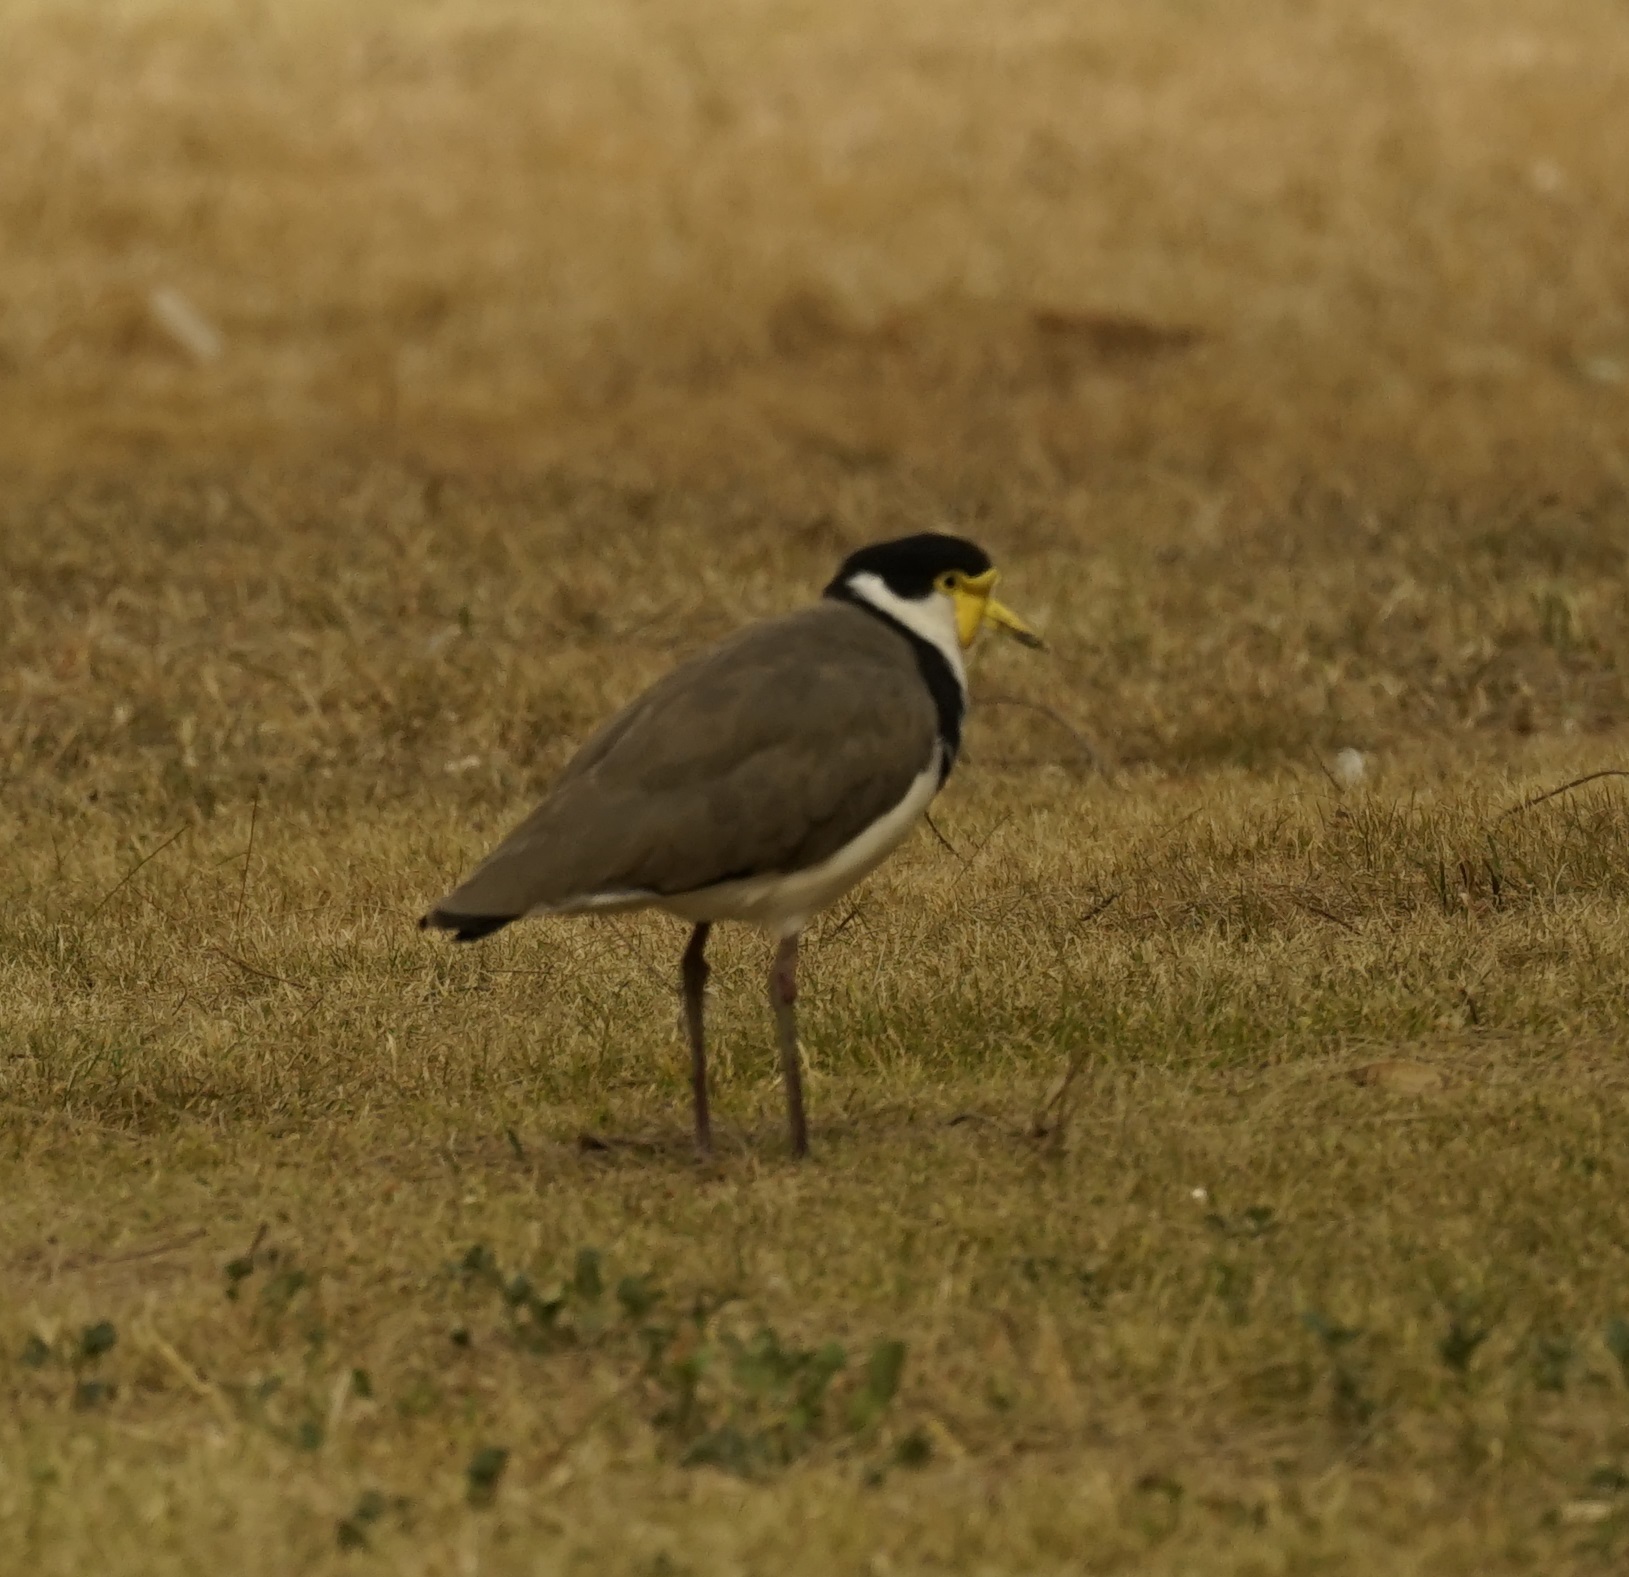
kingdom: Animalia
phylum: Chordata
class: Aves
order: Charadriiformes
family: Charadriidae
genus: Vanellus
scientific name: Vanellus miles
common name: Masked lapwing
